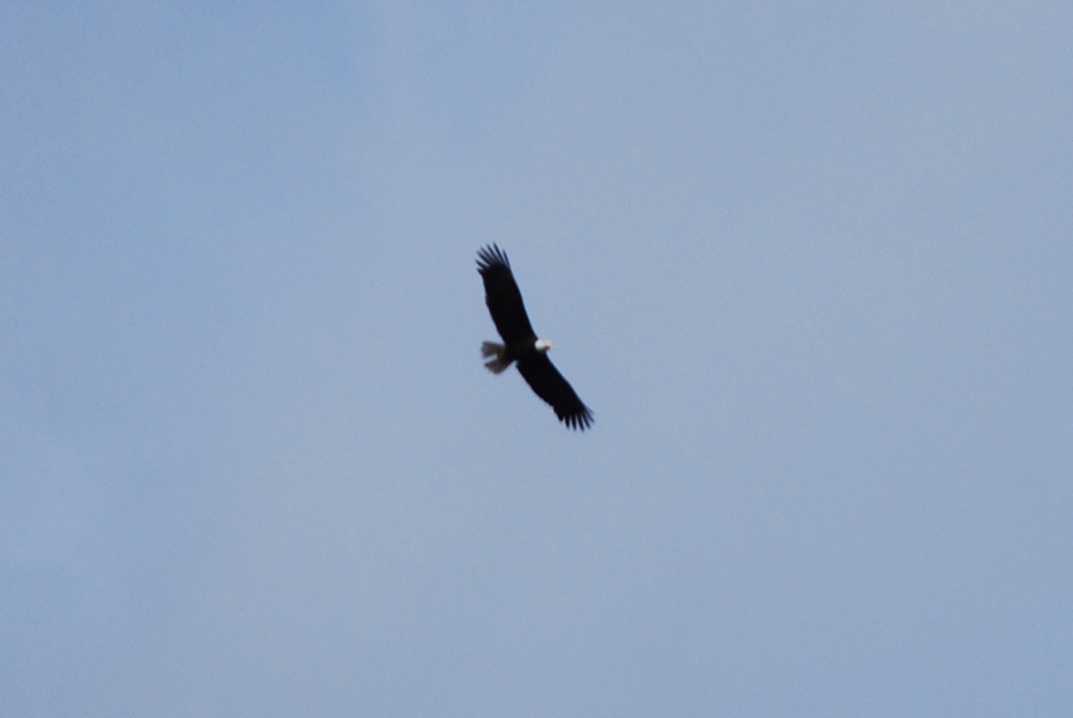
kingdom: Animalia
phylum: Chordata
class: Aves
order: Accipitriformes
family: Accipitridae
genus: Haliaeetus
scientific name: Haliaeetus leucocephalus
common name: Bald eagle
